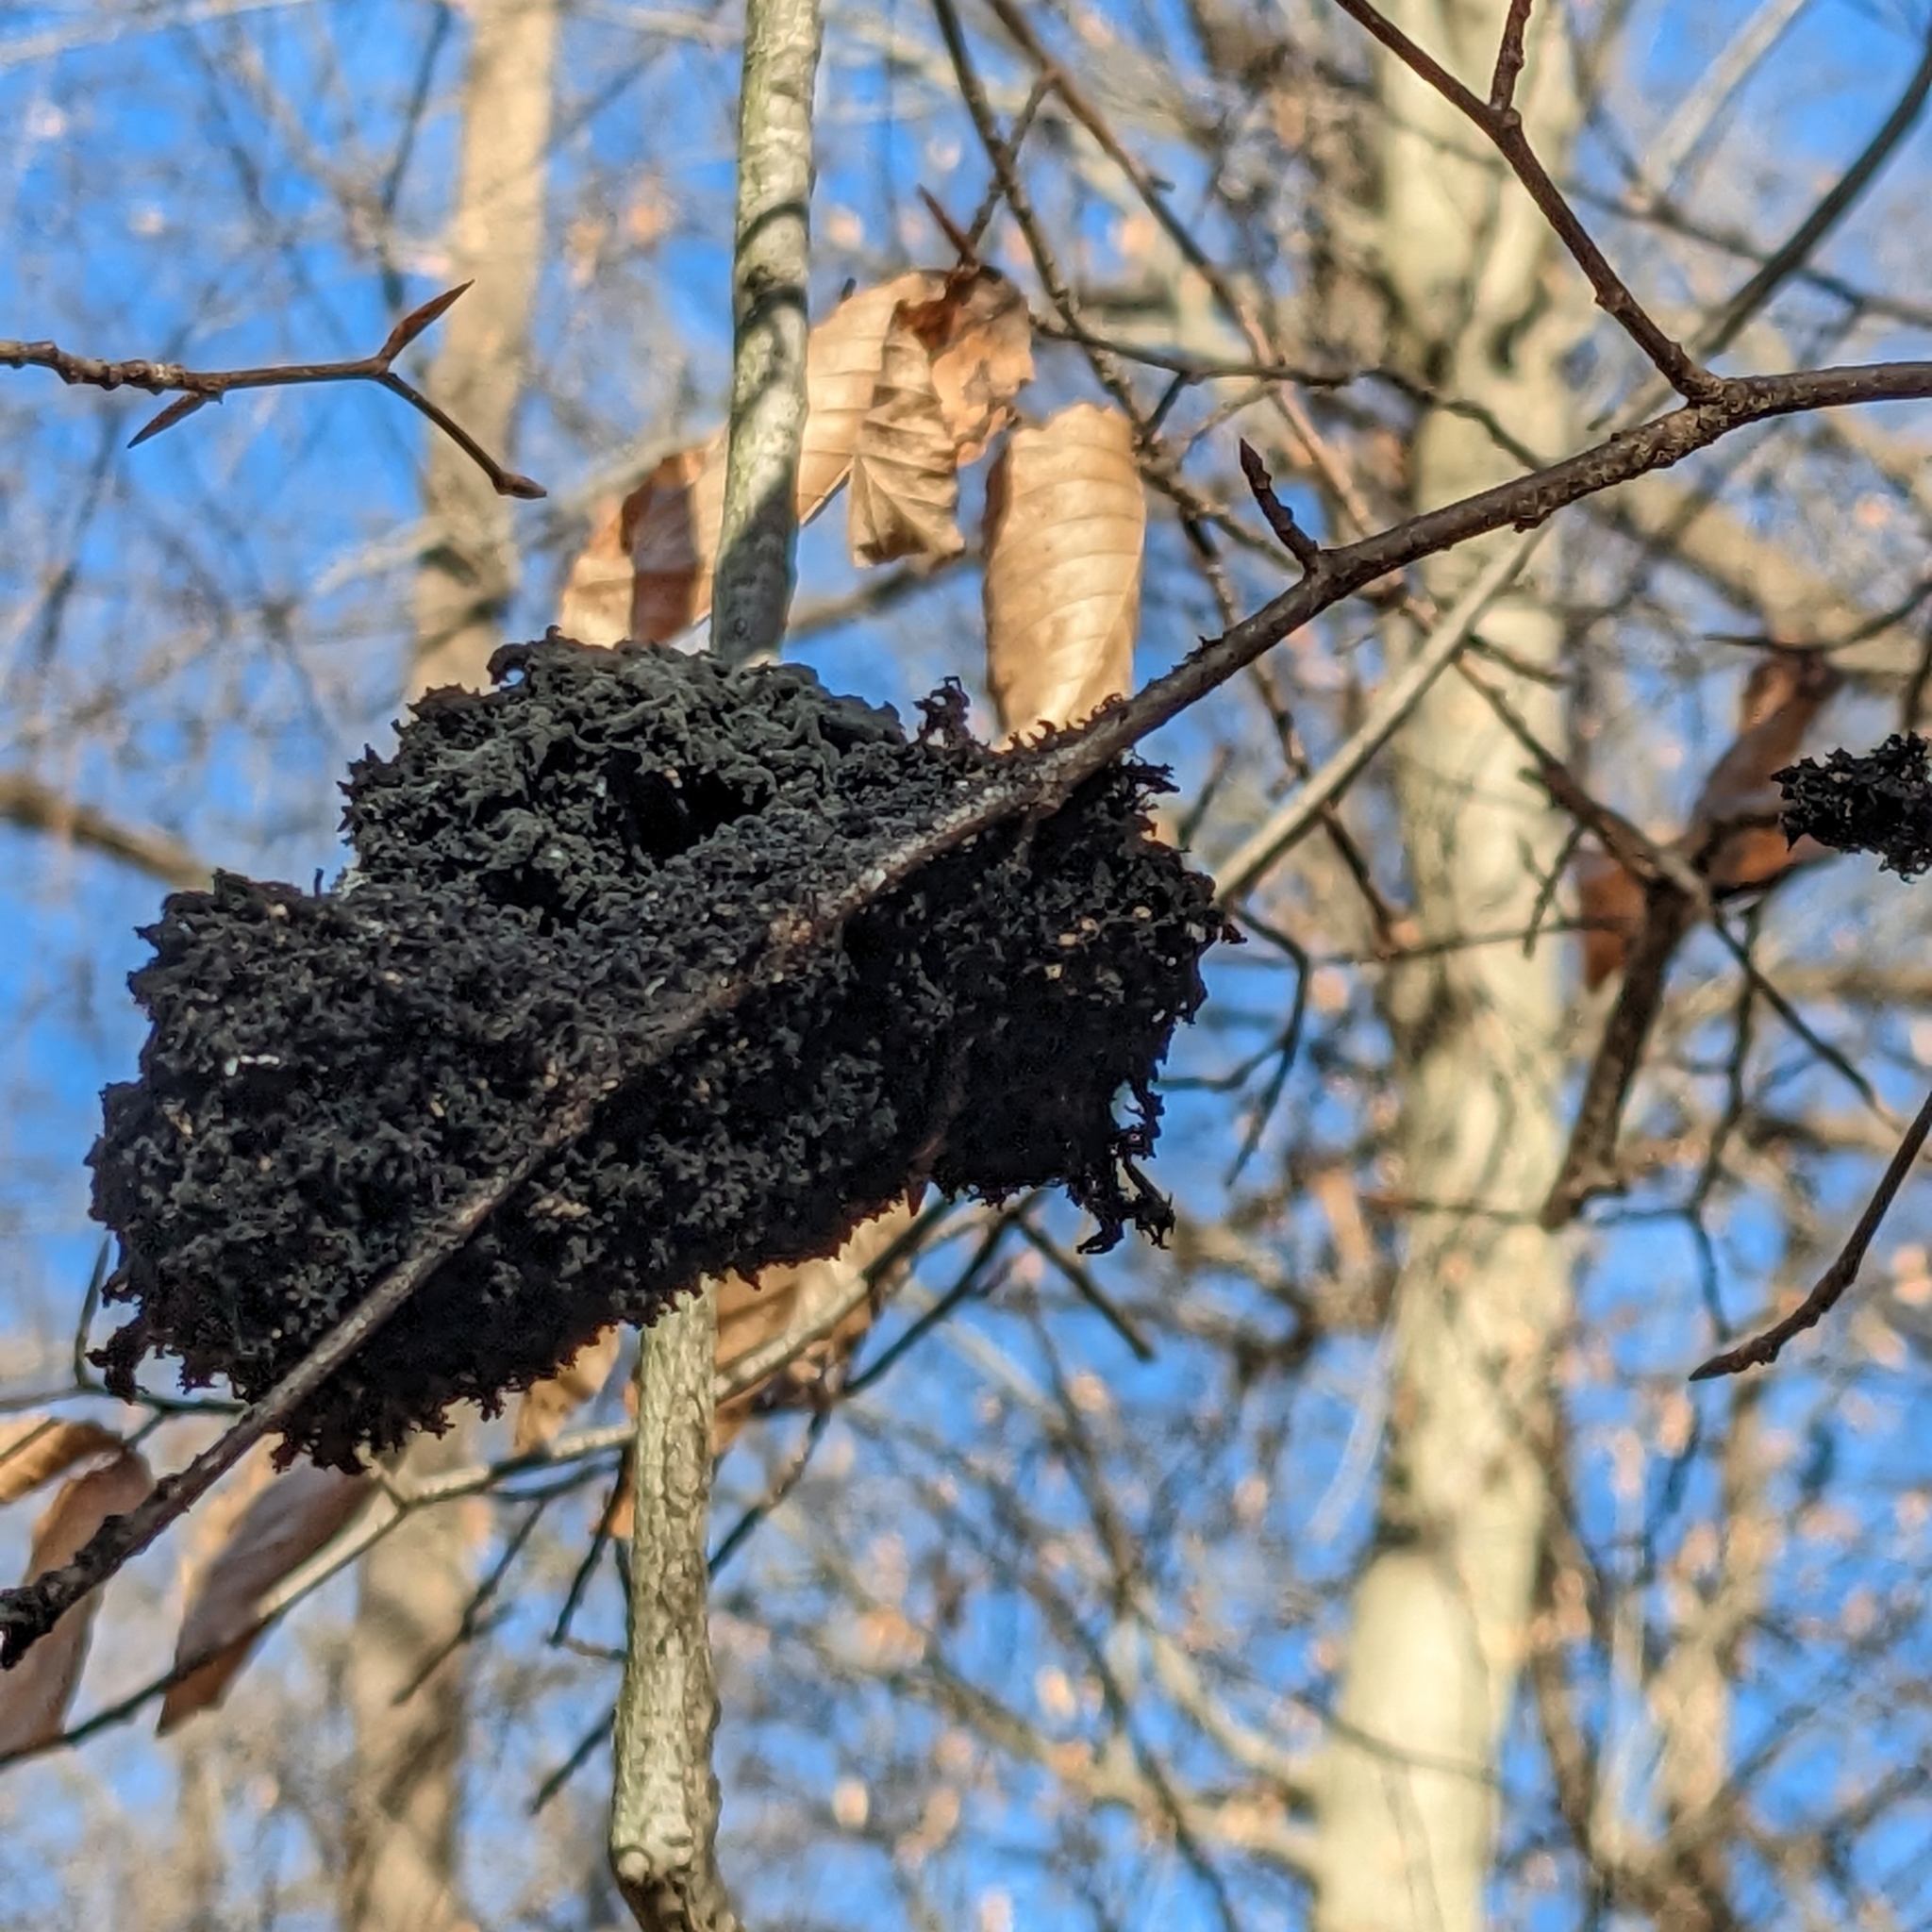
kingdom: Fungi
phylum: Ascomycota
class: Dothideomycetes
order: Capnodiales
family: Capnodiaceae
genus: Scorias
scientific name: Scorias spongiosa
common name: Black sooty mold
